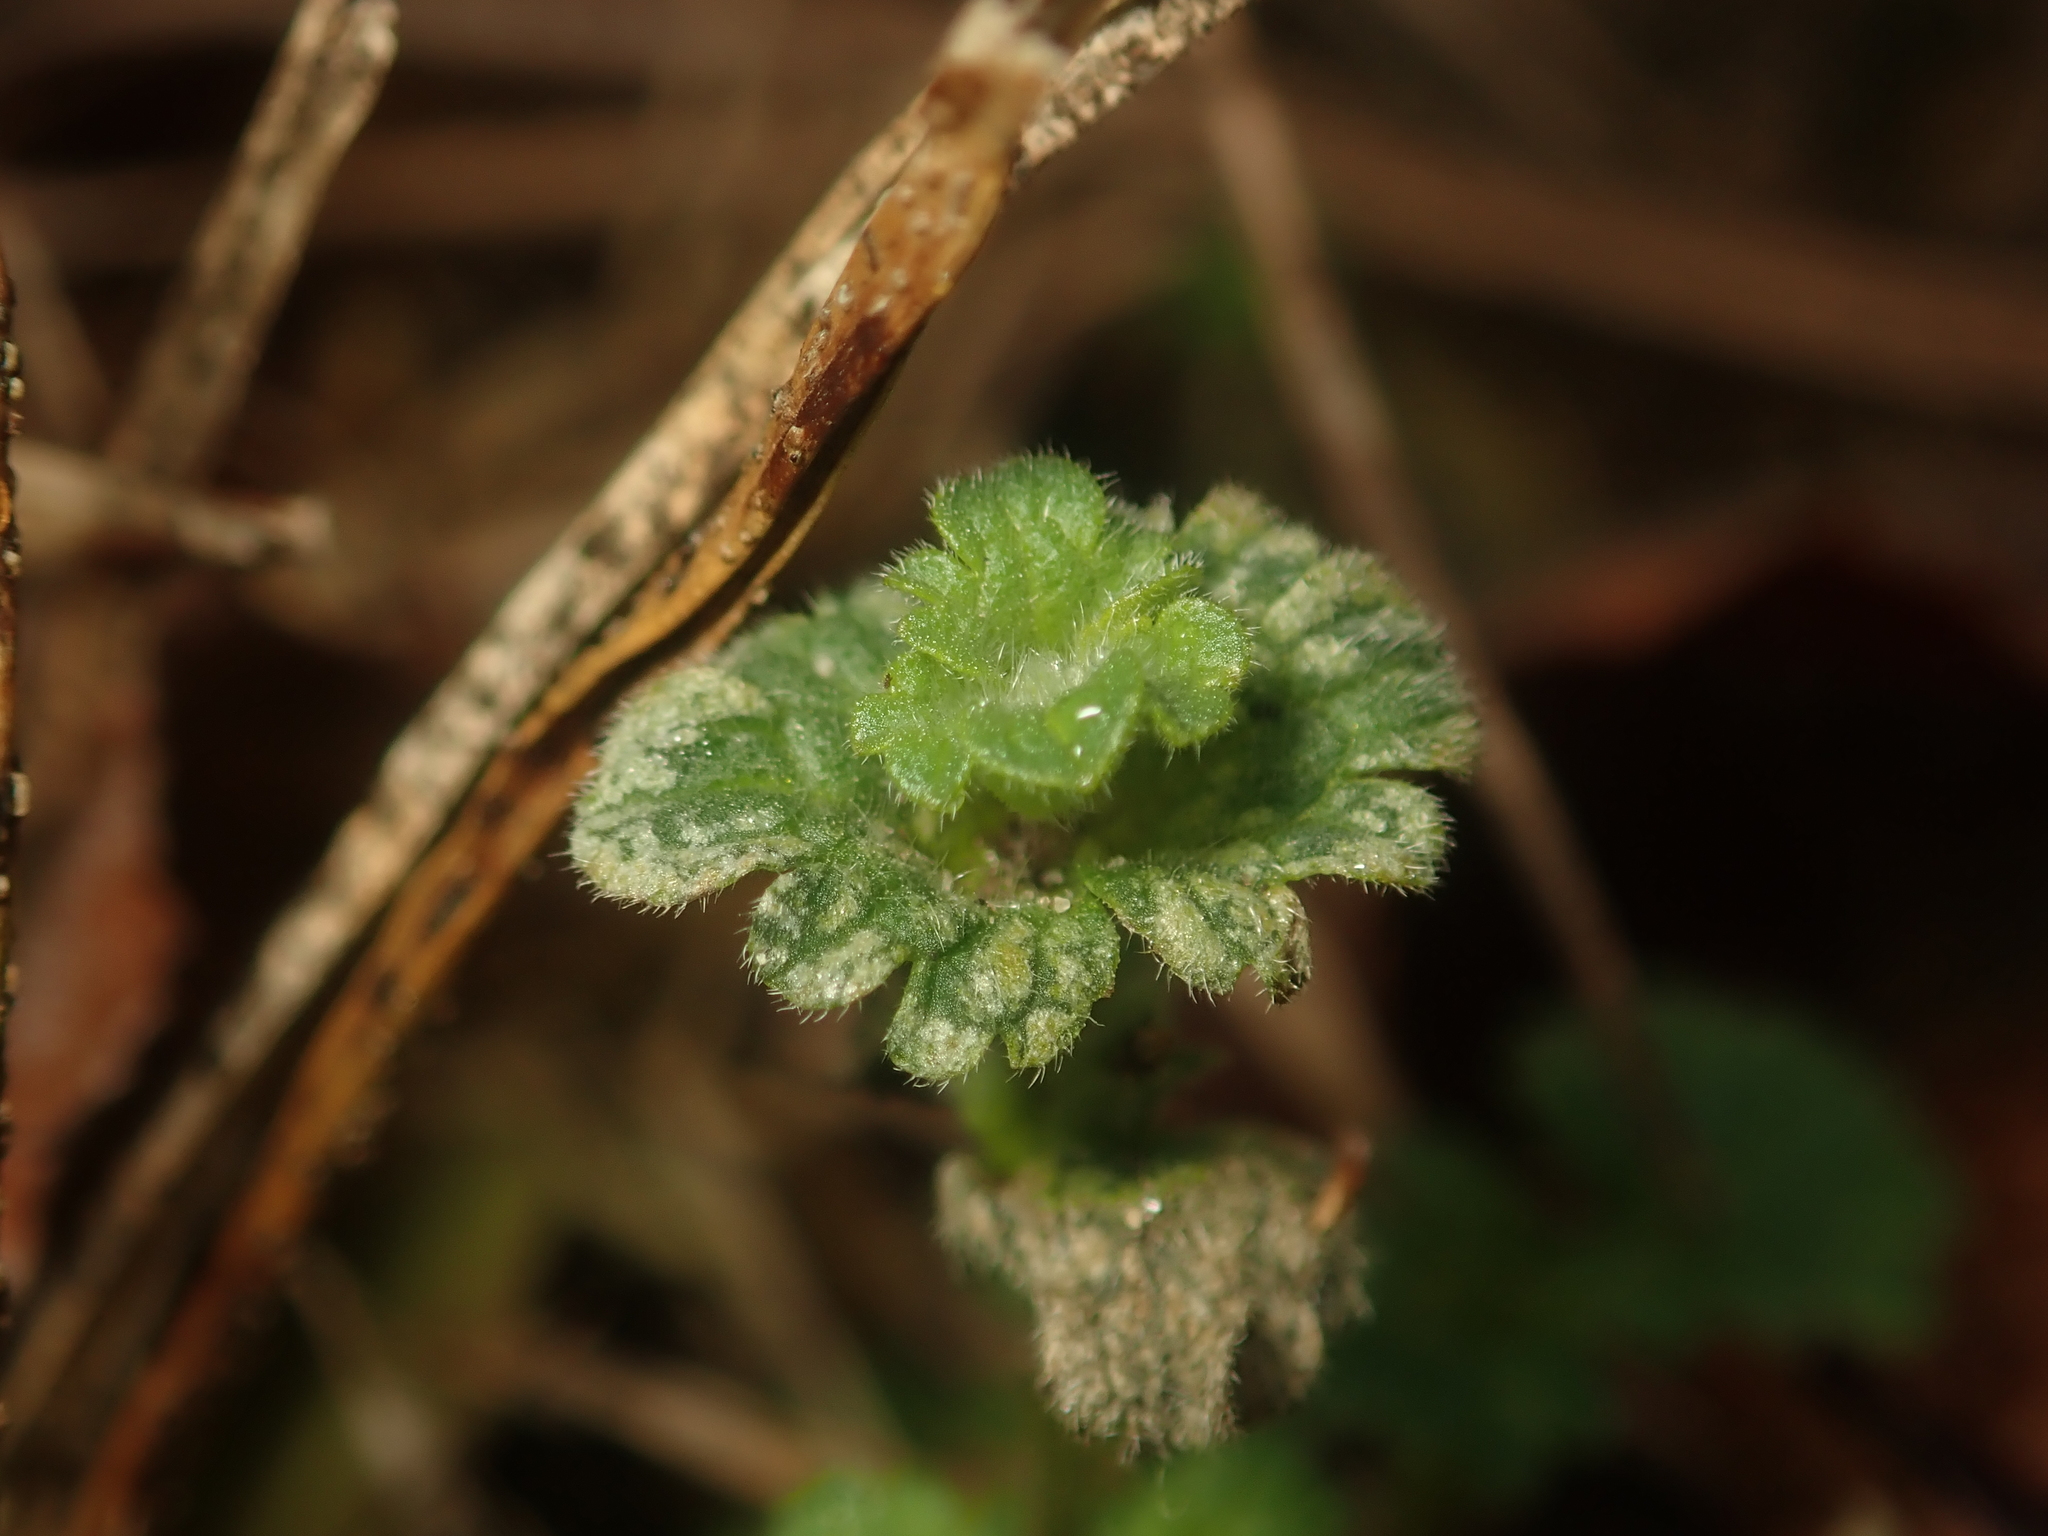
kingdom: Plantae
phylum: Tracheophyta
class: Magnoliopsida
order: Lamiales
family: Lamiaceae
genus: Lamium
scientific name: Lamium amplexicaule
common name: Henbit dead-nettle
